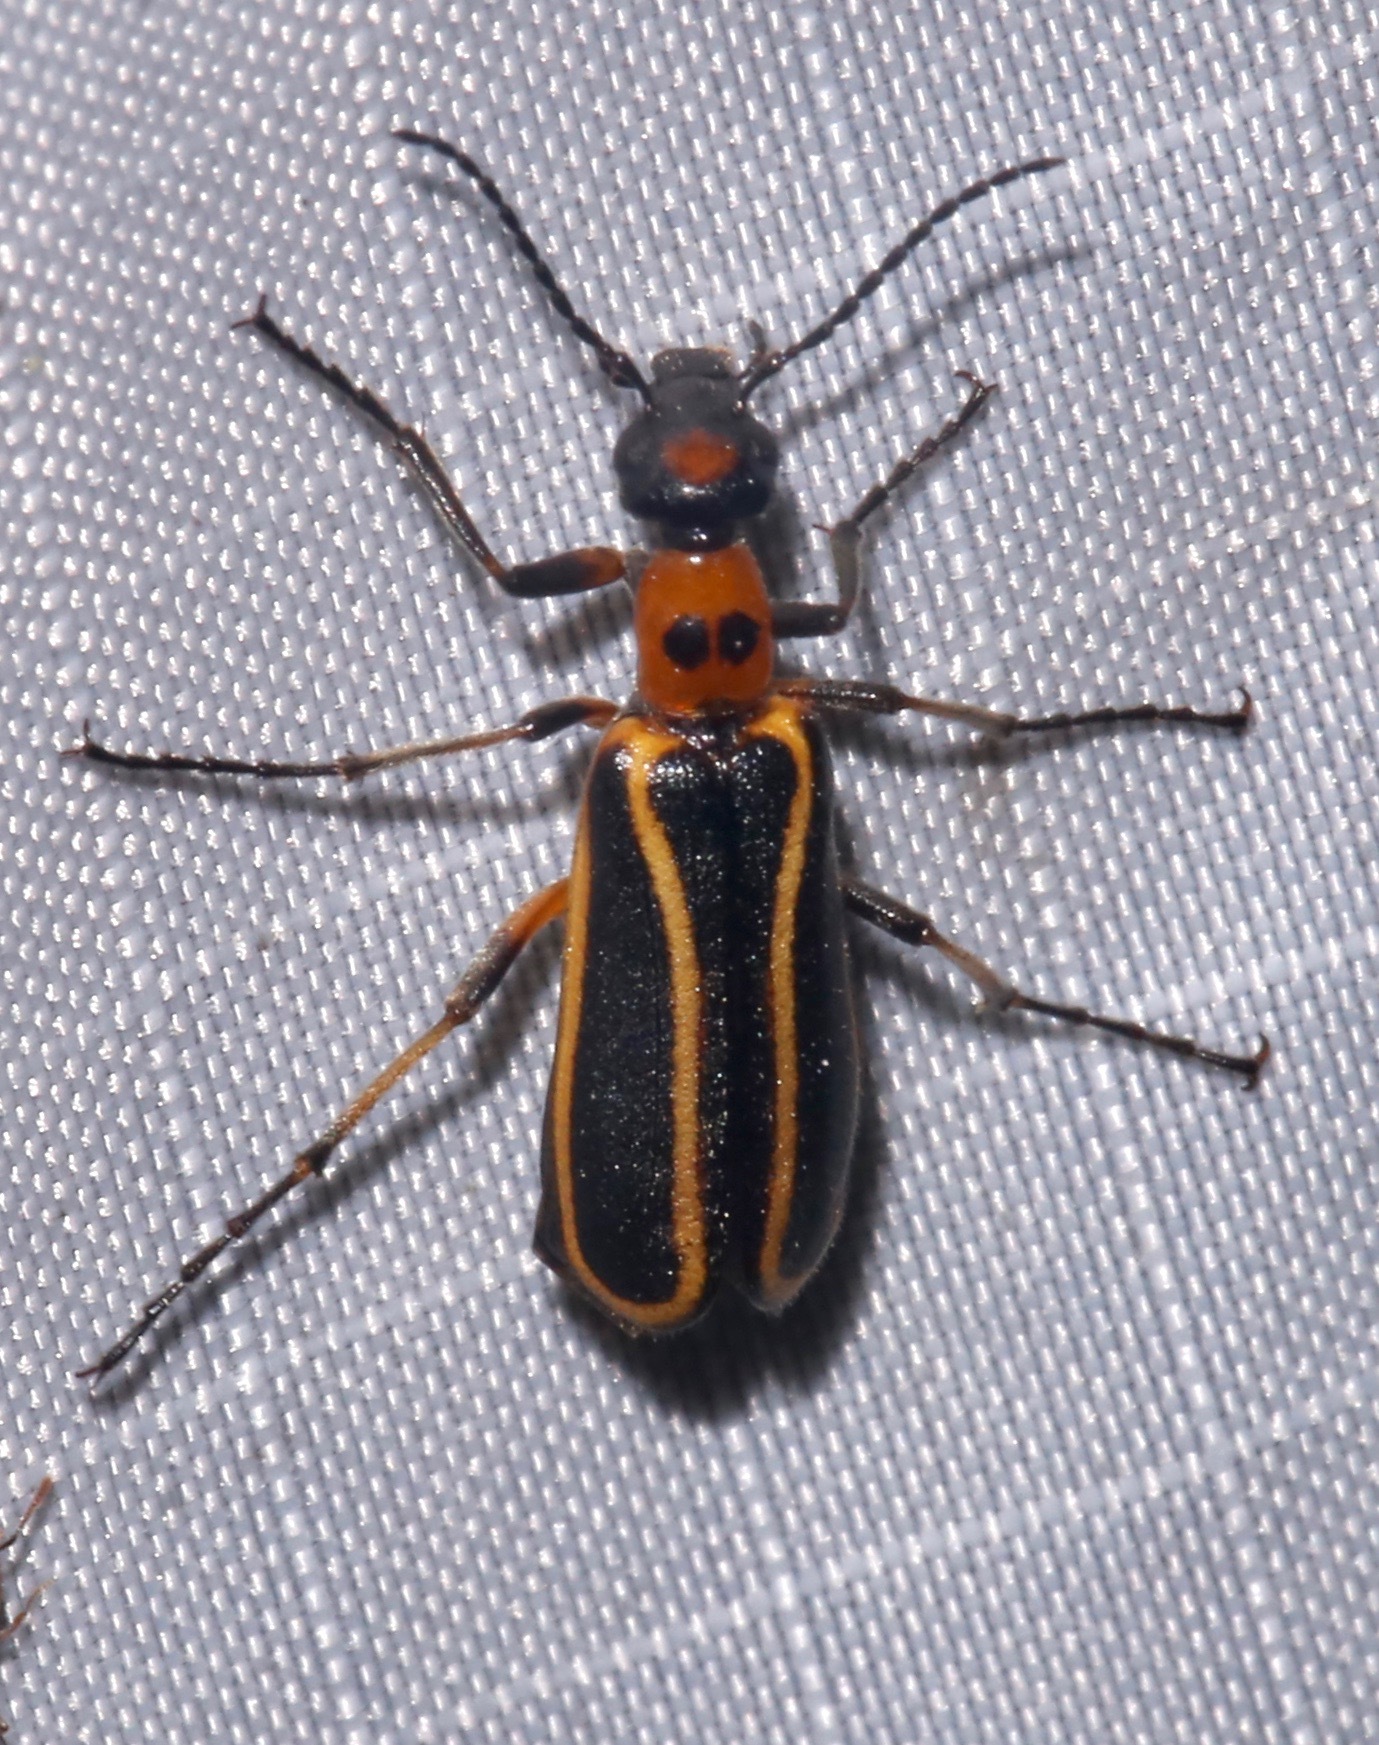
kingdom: Animalia
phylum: Arthropoda
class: Insecta
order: Coleoptera
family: Meloidae
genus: Pyrota
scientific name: Pyrota
